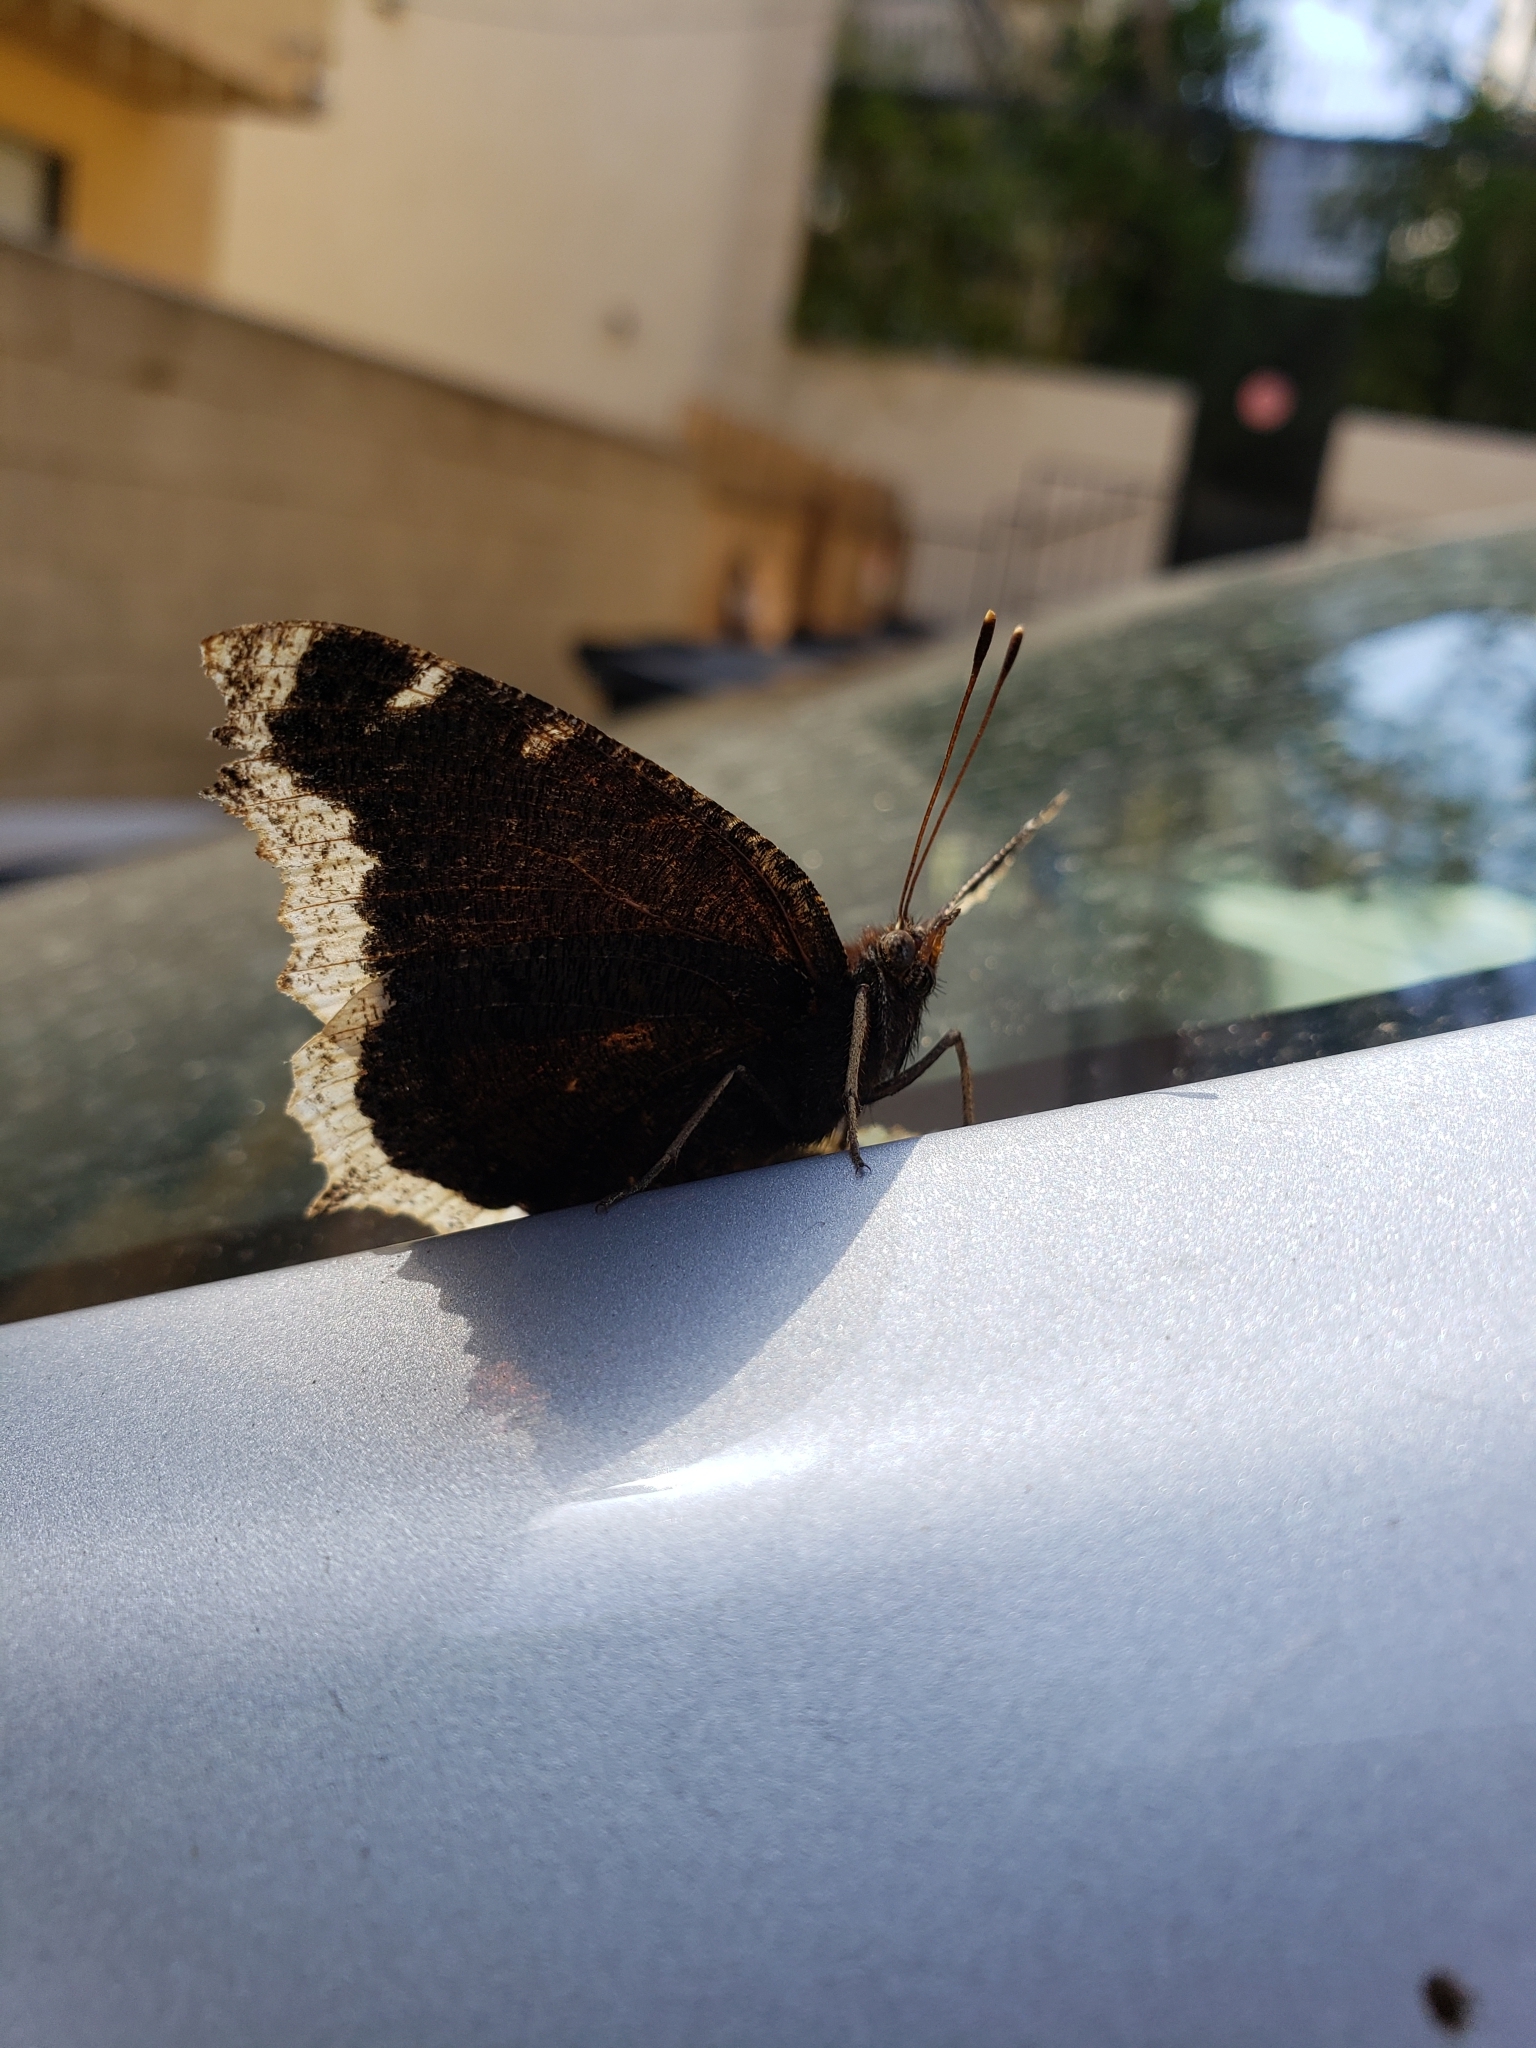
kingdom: Animalia
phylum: Arthropoda
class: Insecta
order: Lepidoptera
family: Nymphalidae
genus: Nymphalis
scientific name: Nymphalis antiopa
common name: Camberwell beauty
